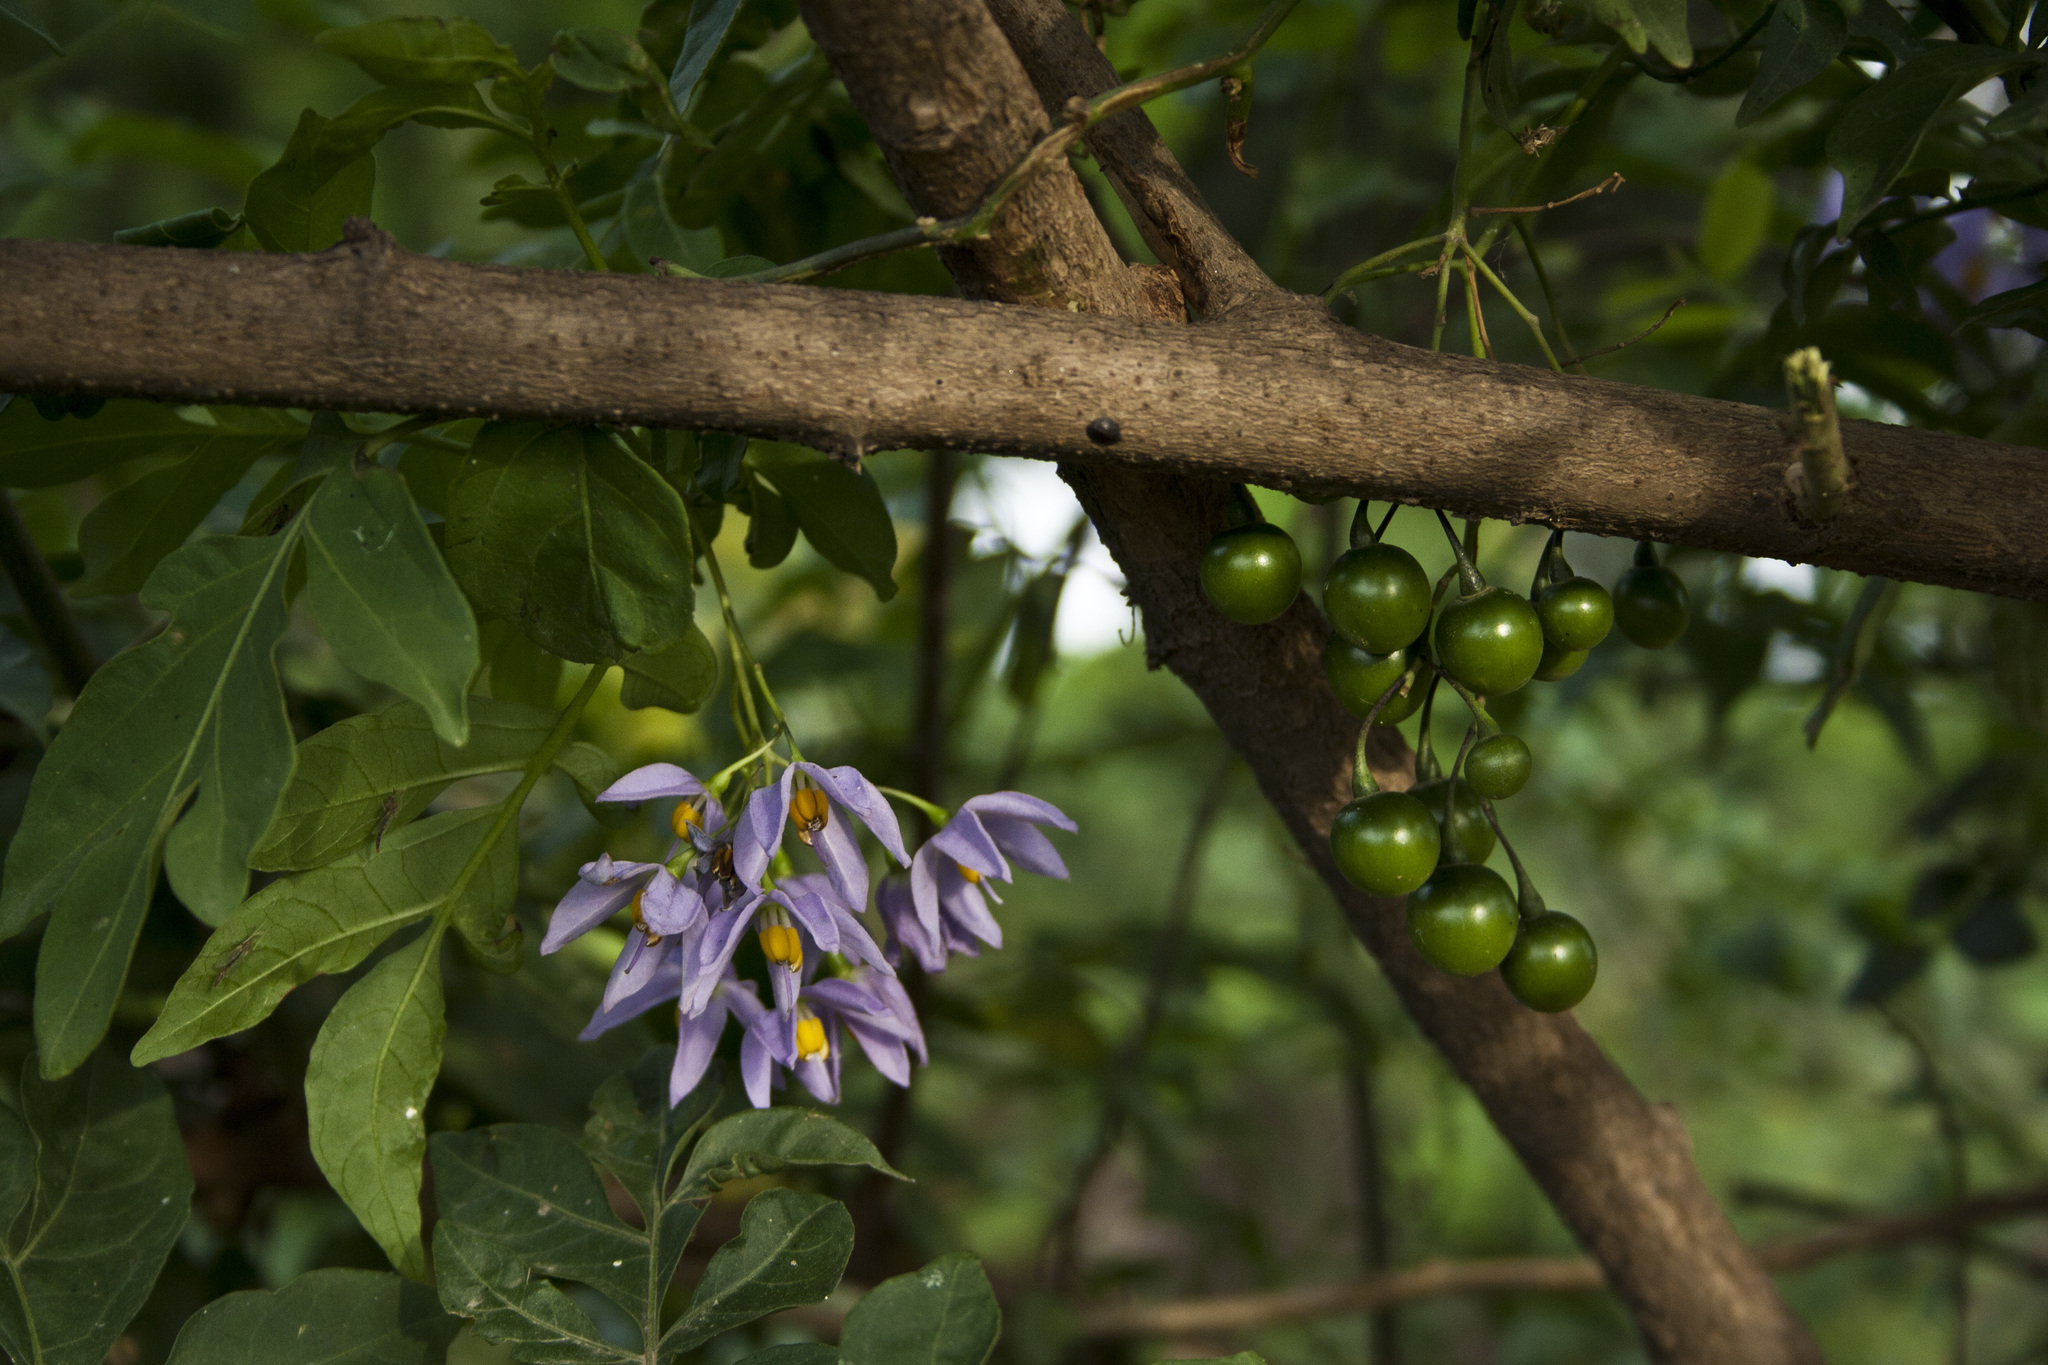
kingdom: Plantae
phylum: Tracheophyta
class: Magnoliopsida
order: Solanales
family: Solanaceae
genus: Solanum
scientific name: Solanum seaforthianum
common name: Brazilian nightshade
